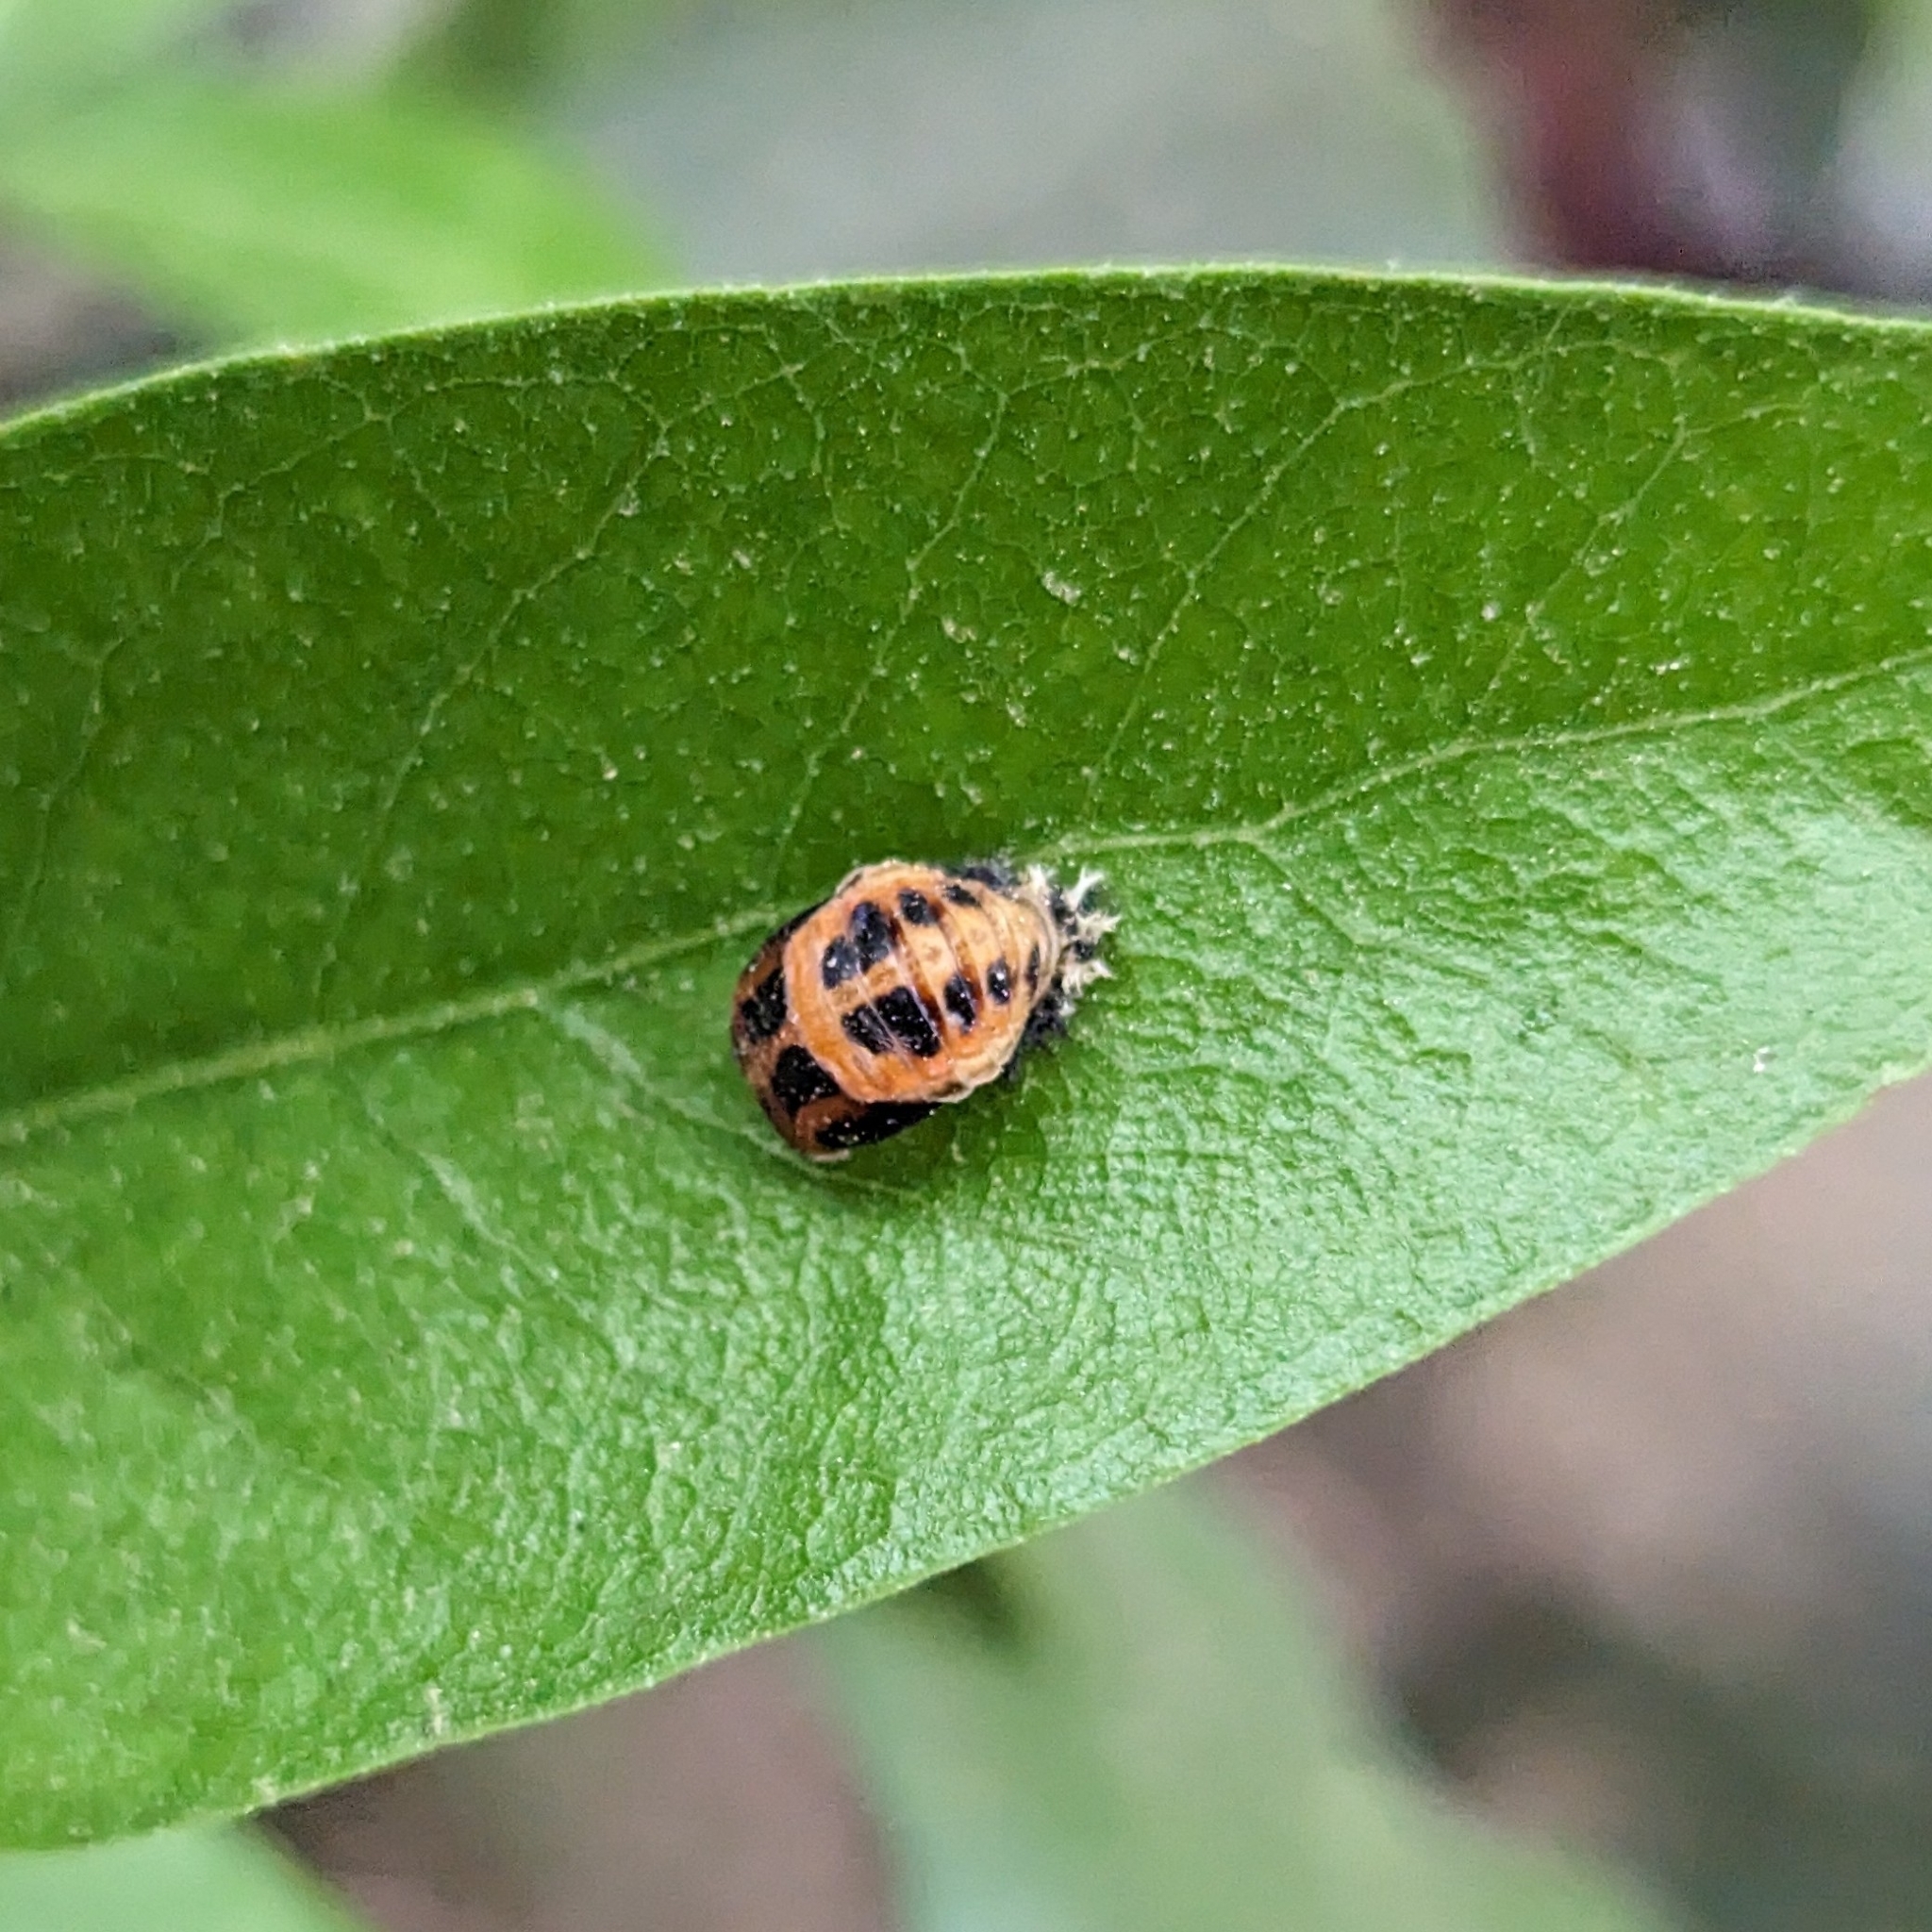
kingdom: Animalia
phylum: Arthropoda
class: Insecta
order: Coleoptera
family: Coccinellidae
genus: Harmonia
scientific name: Harmonia axyridis
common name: Harlequin ladybird
